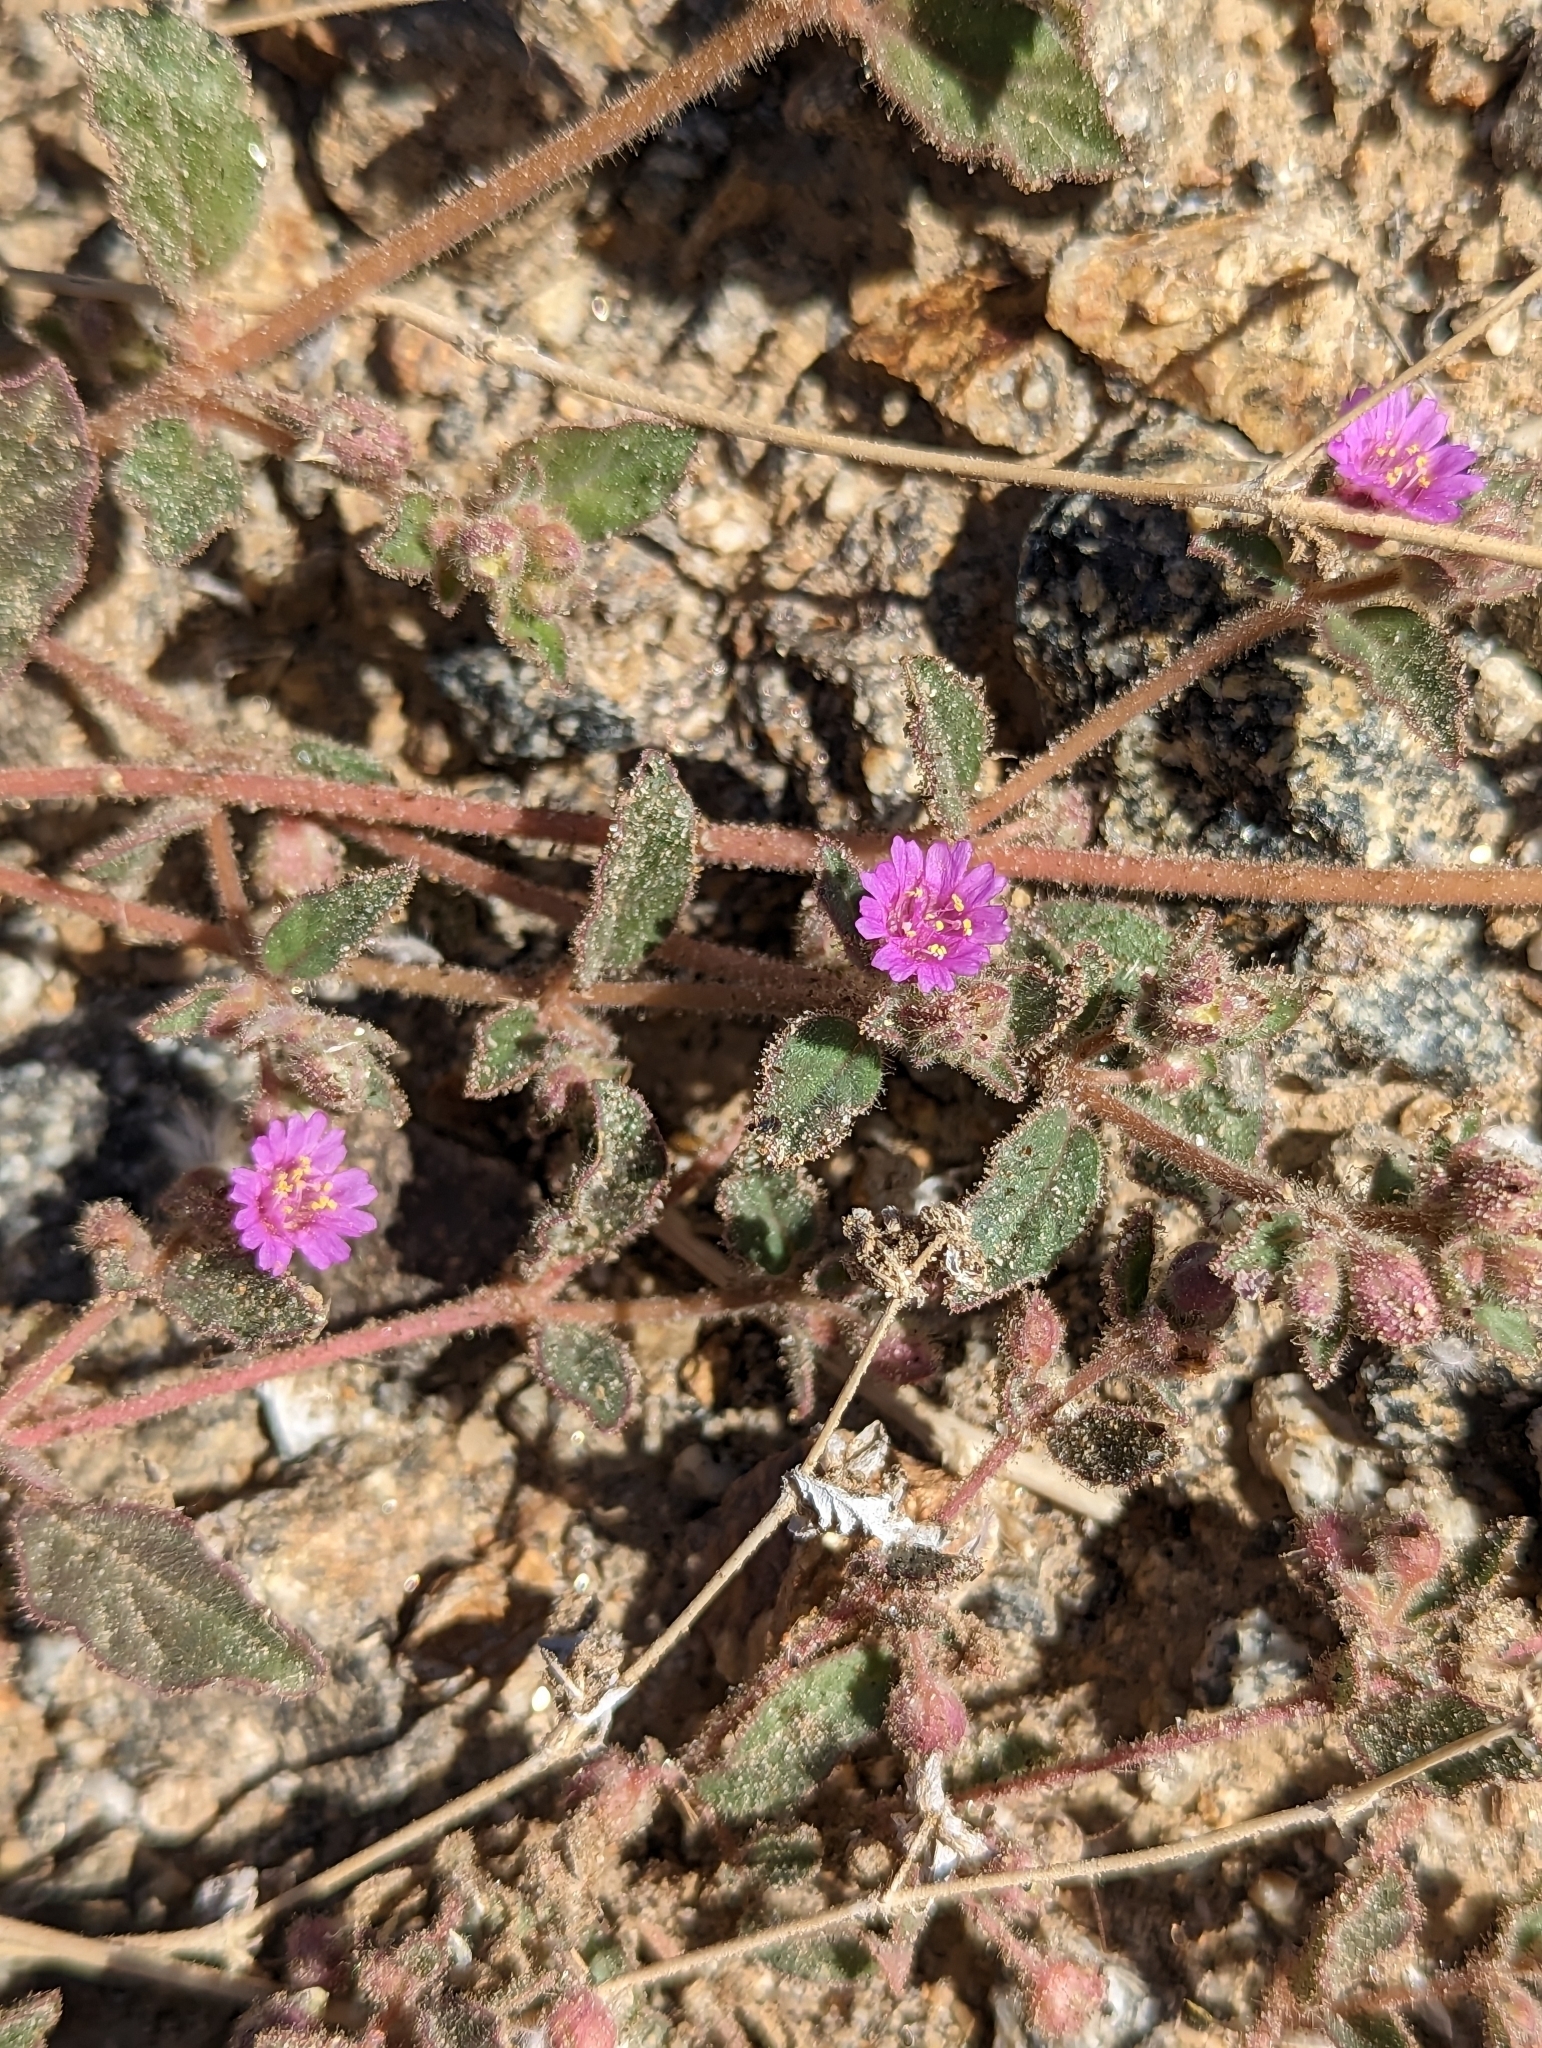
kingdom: Plantae
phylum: Tracheophyta
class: Magnoliopsida
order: Caryophyllales
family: Nyctaginaceae
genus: Allionia
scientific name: Allionia incarnata
